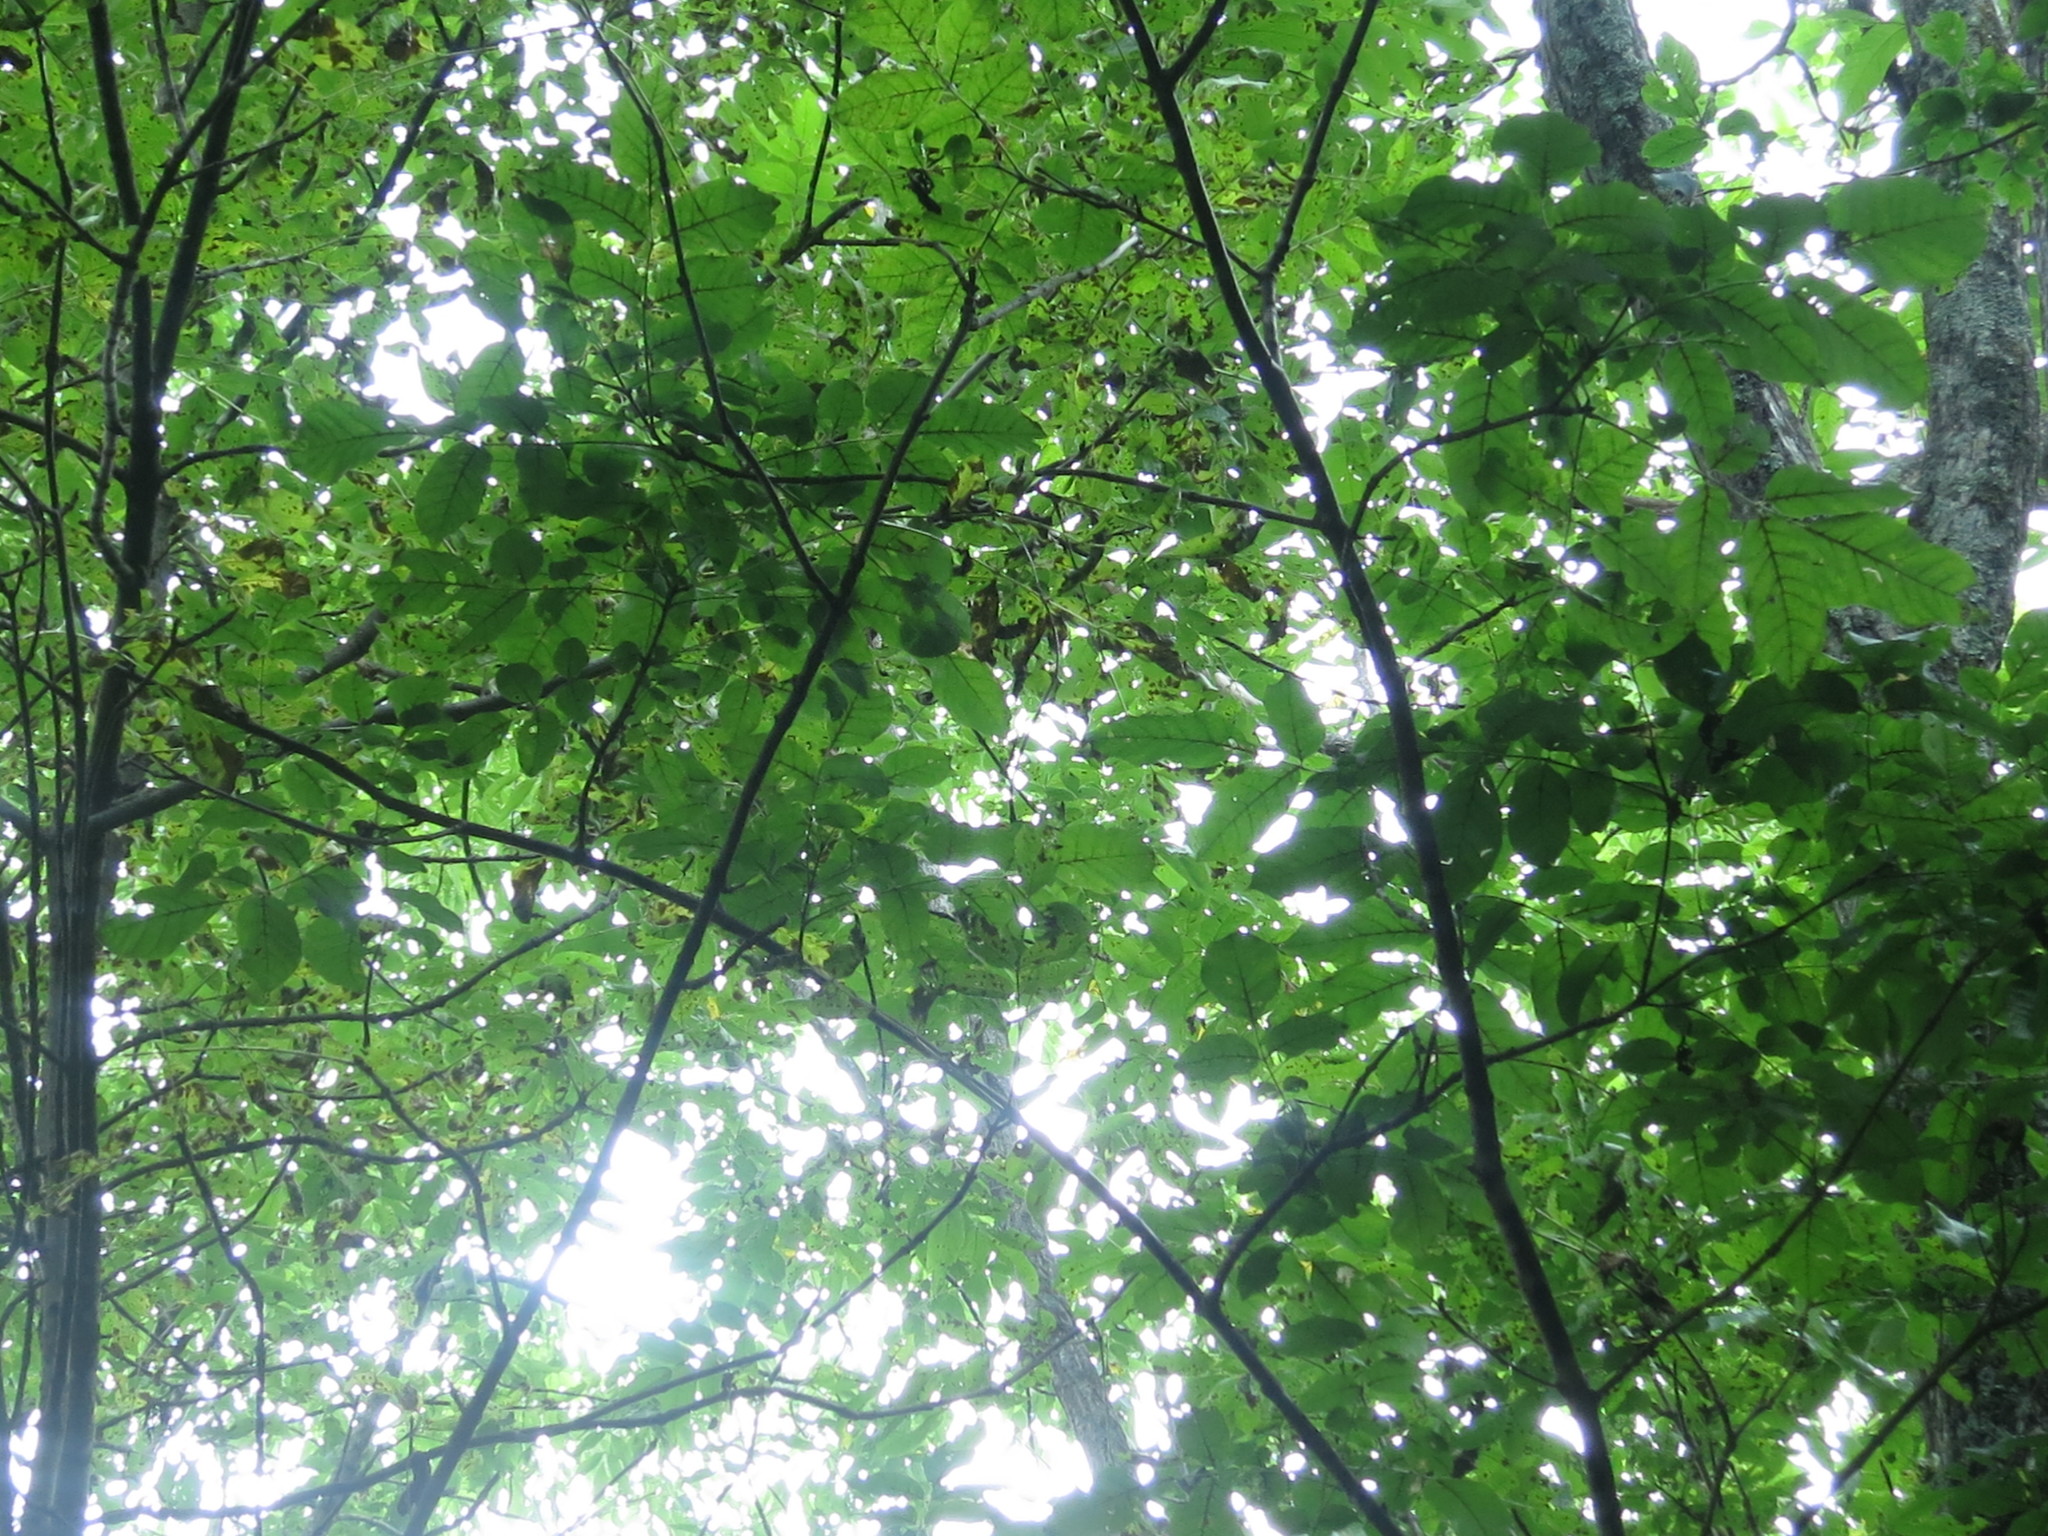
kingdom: Plantae
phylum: Tracheophyta
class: Magnoliopsida
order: Fagales
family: Juglandaceae
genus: Juglans
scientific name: Juglans mandshurica
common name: Manchurian walnut
